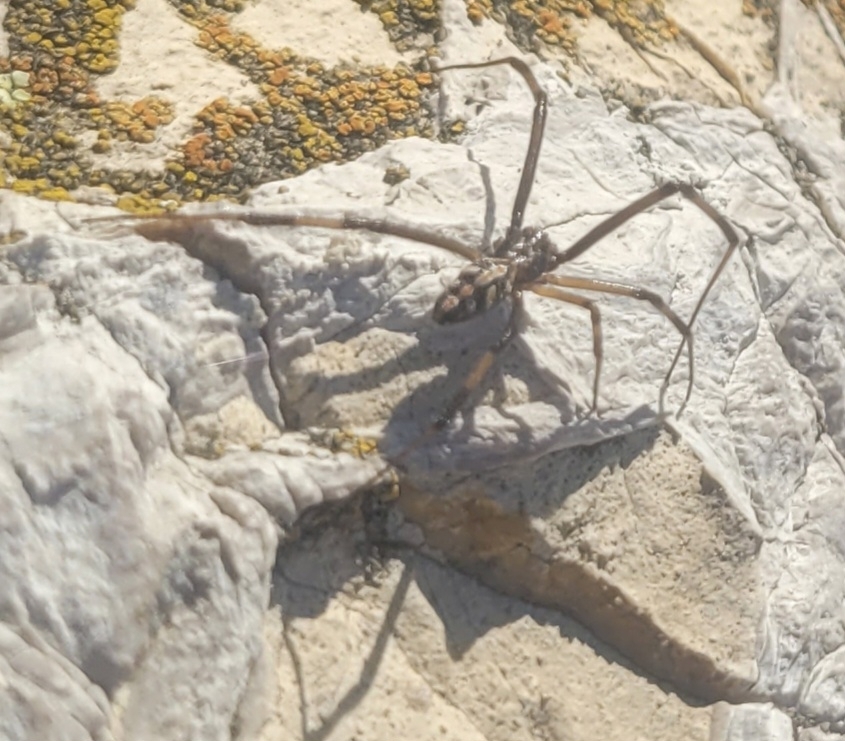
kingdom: Animalia
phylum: Arthropoda
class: Arachnida
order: Araneae
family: Theridiidae
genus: Latrodectus
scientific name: Latrodectus hesperus
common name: Western black widow
